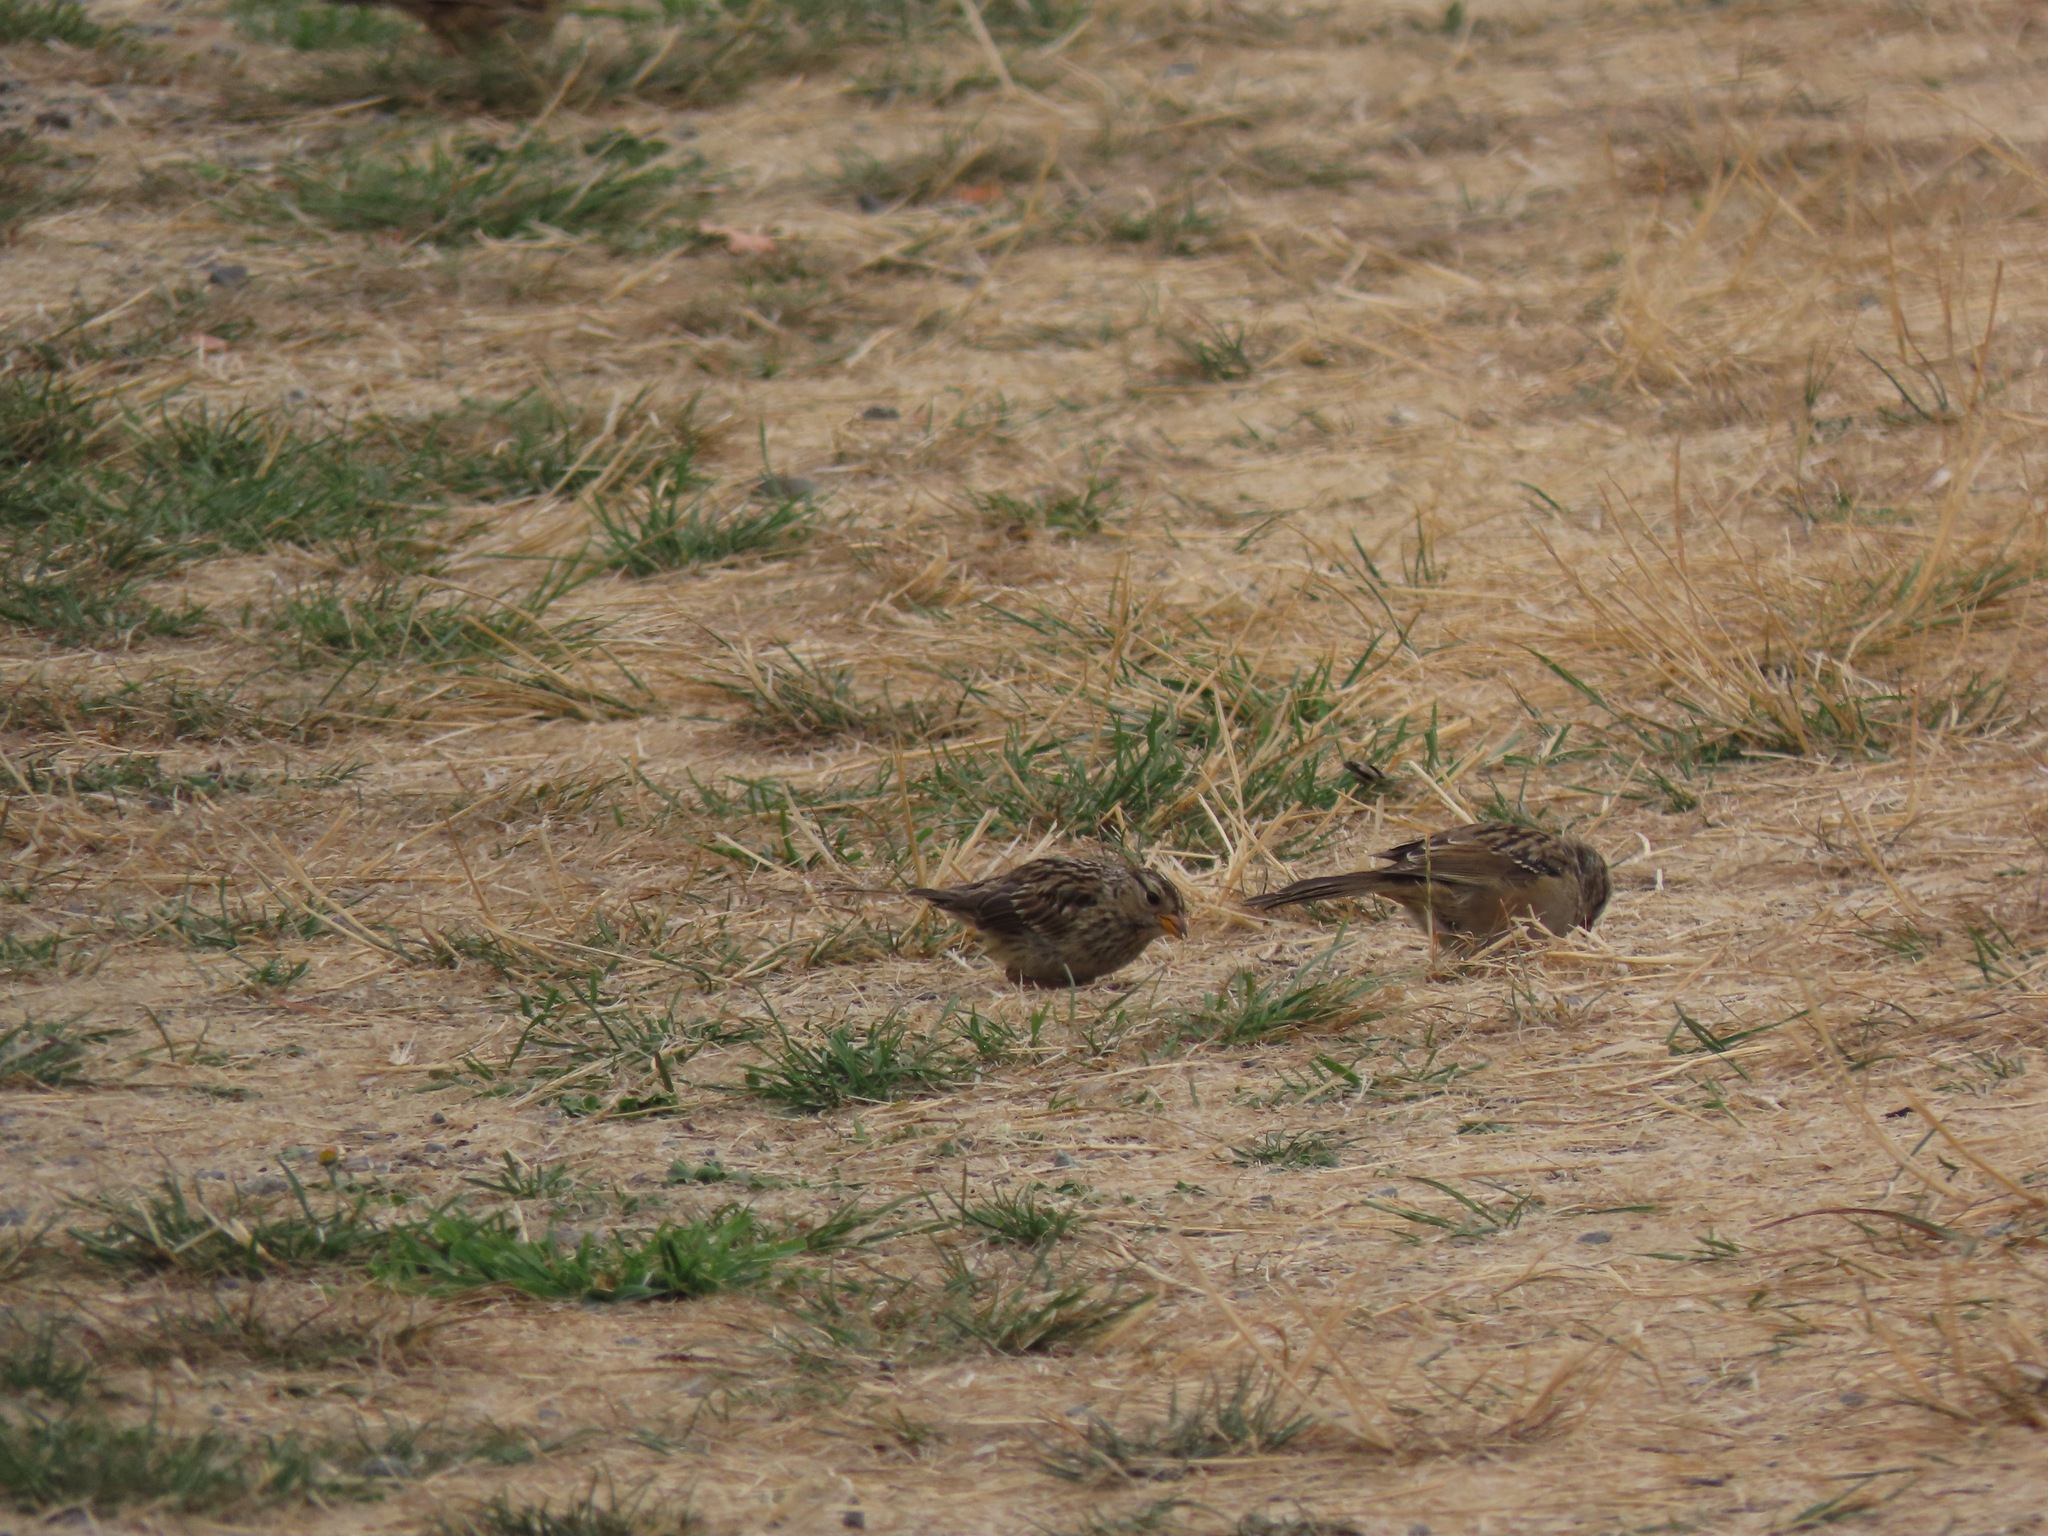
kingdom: Animalia
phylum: Chordata
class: Aves
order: Passeriformes
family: Passerellidae
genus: Zonotrichia
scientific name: Zonotrichia leucophrys
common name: White-crowned sparrow
